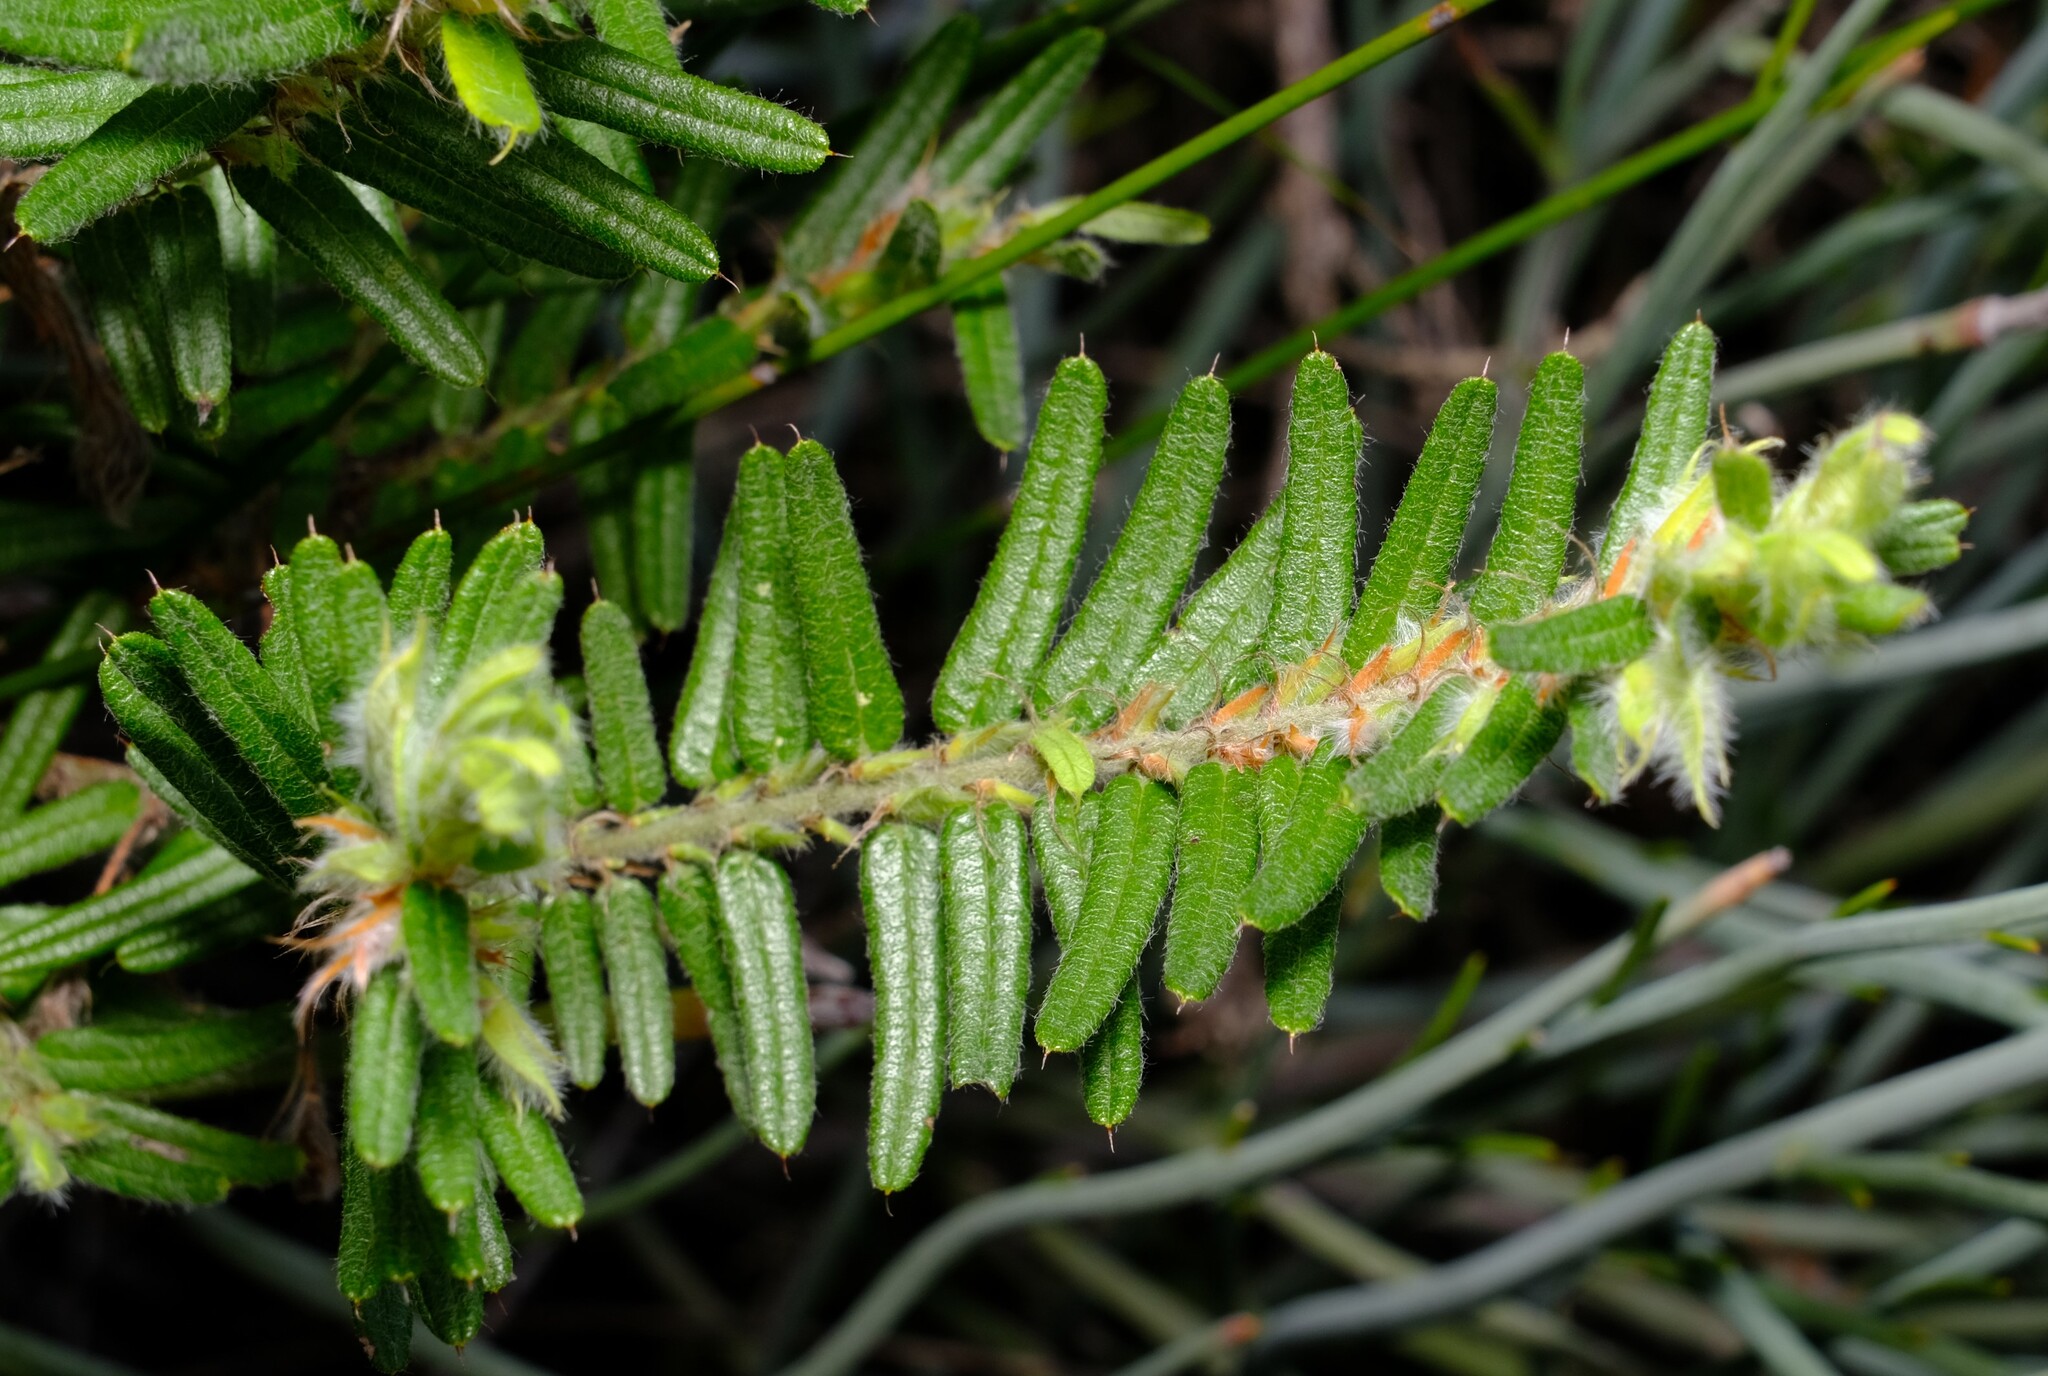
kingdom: Plantae
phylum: Tracheophyta
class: Magnoliopsida
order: Fabales
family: Fabaceae
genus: Bossiaea
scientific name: Bossiaea eriocarpa
